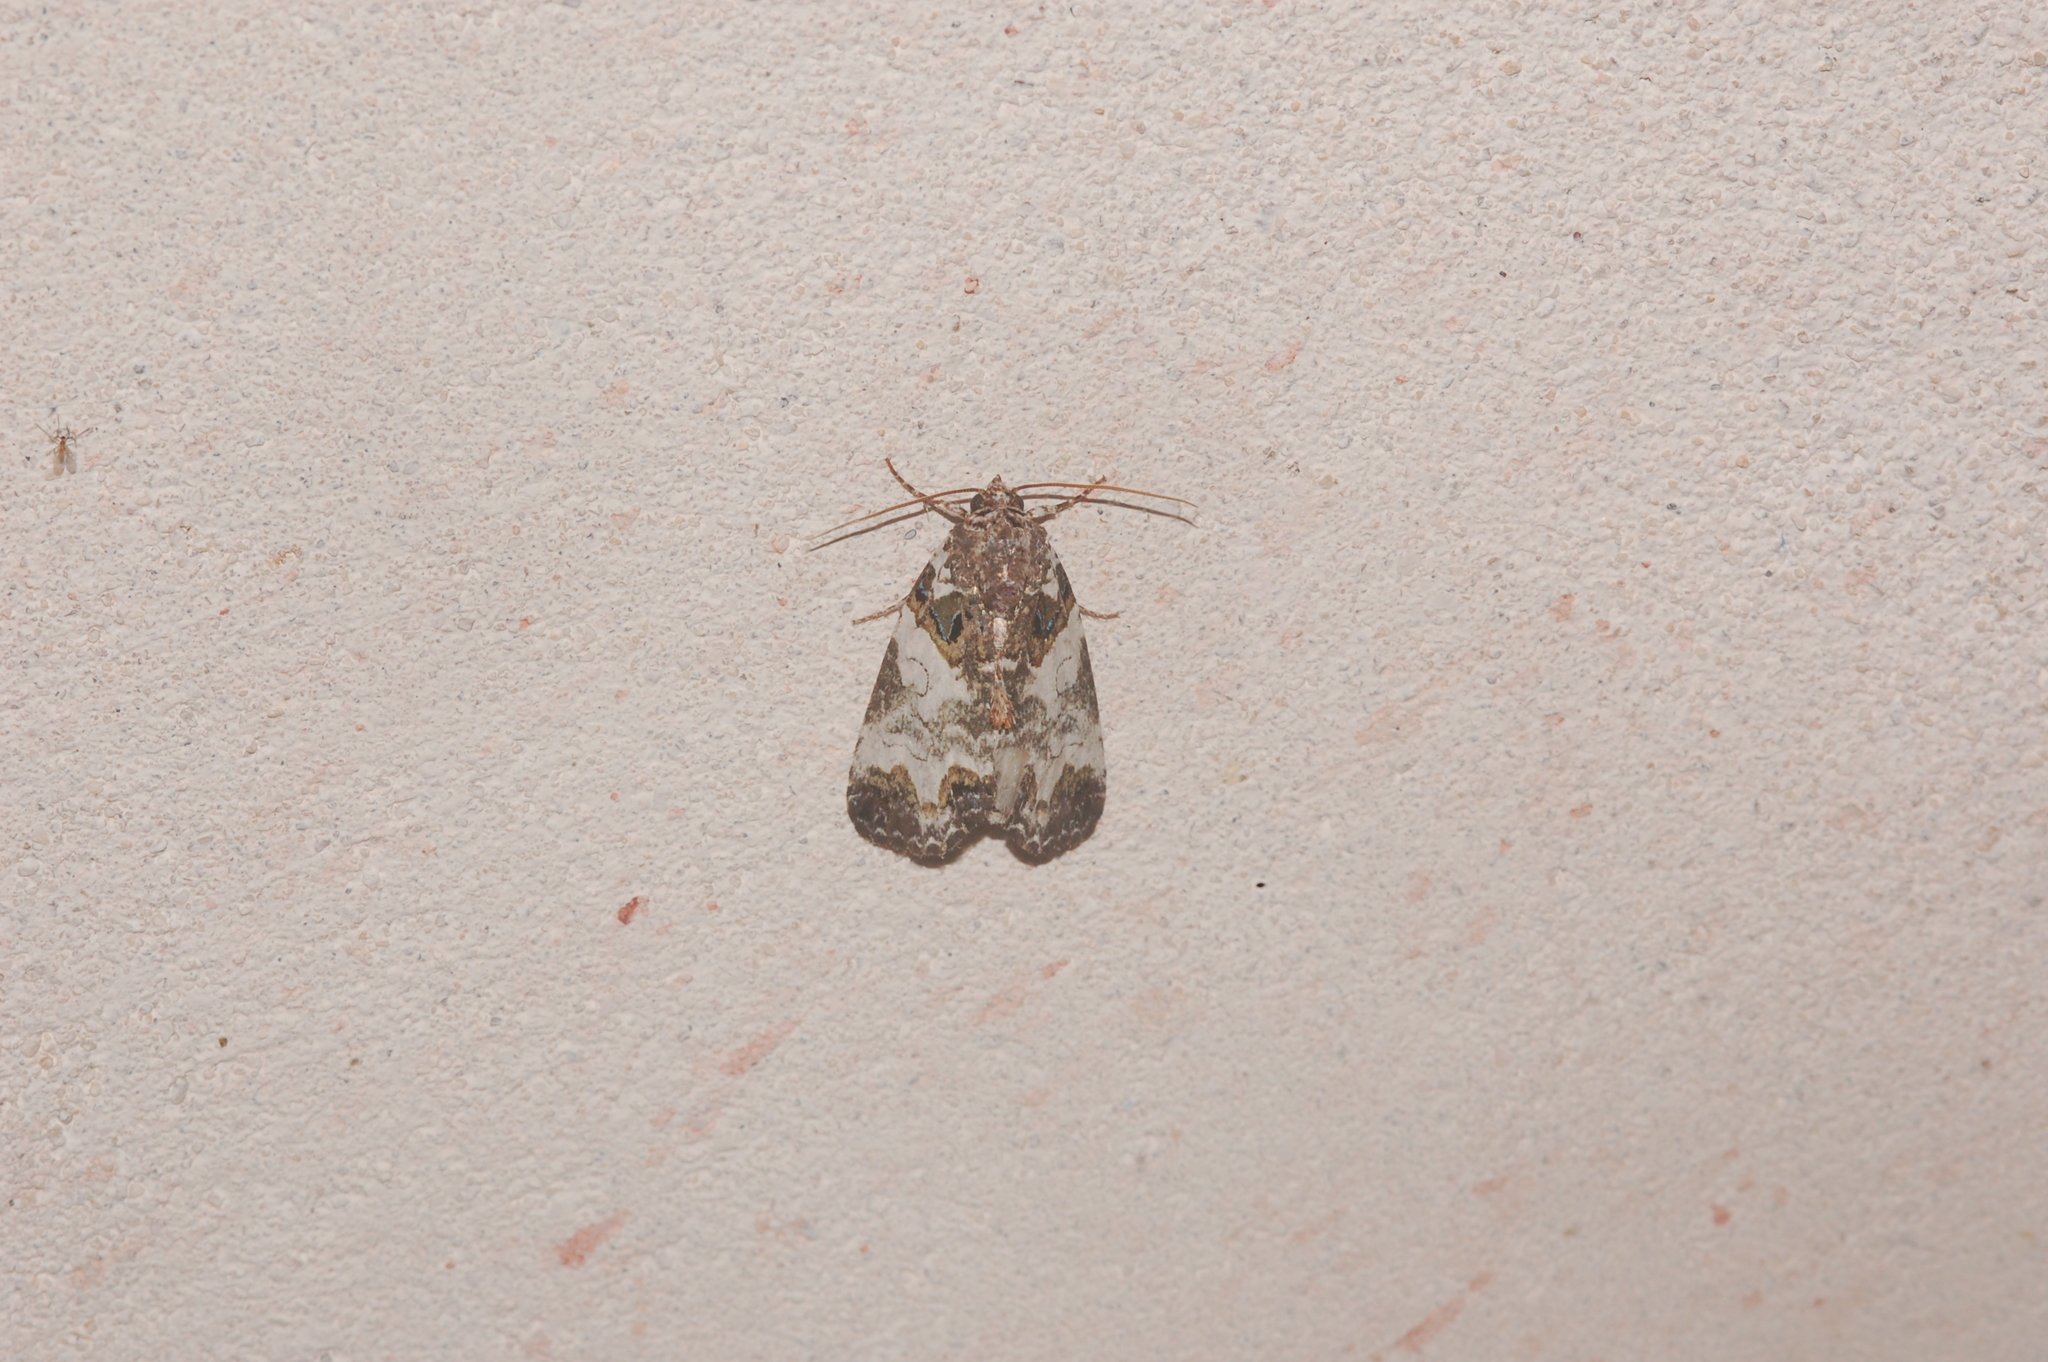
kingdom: Animalia
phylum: Arthropoda
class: Insecta
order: Lepidoptera
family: Noctuidae
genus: Cerma
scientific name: Cerma cerintha
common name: Tufted bird-dropping moth
